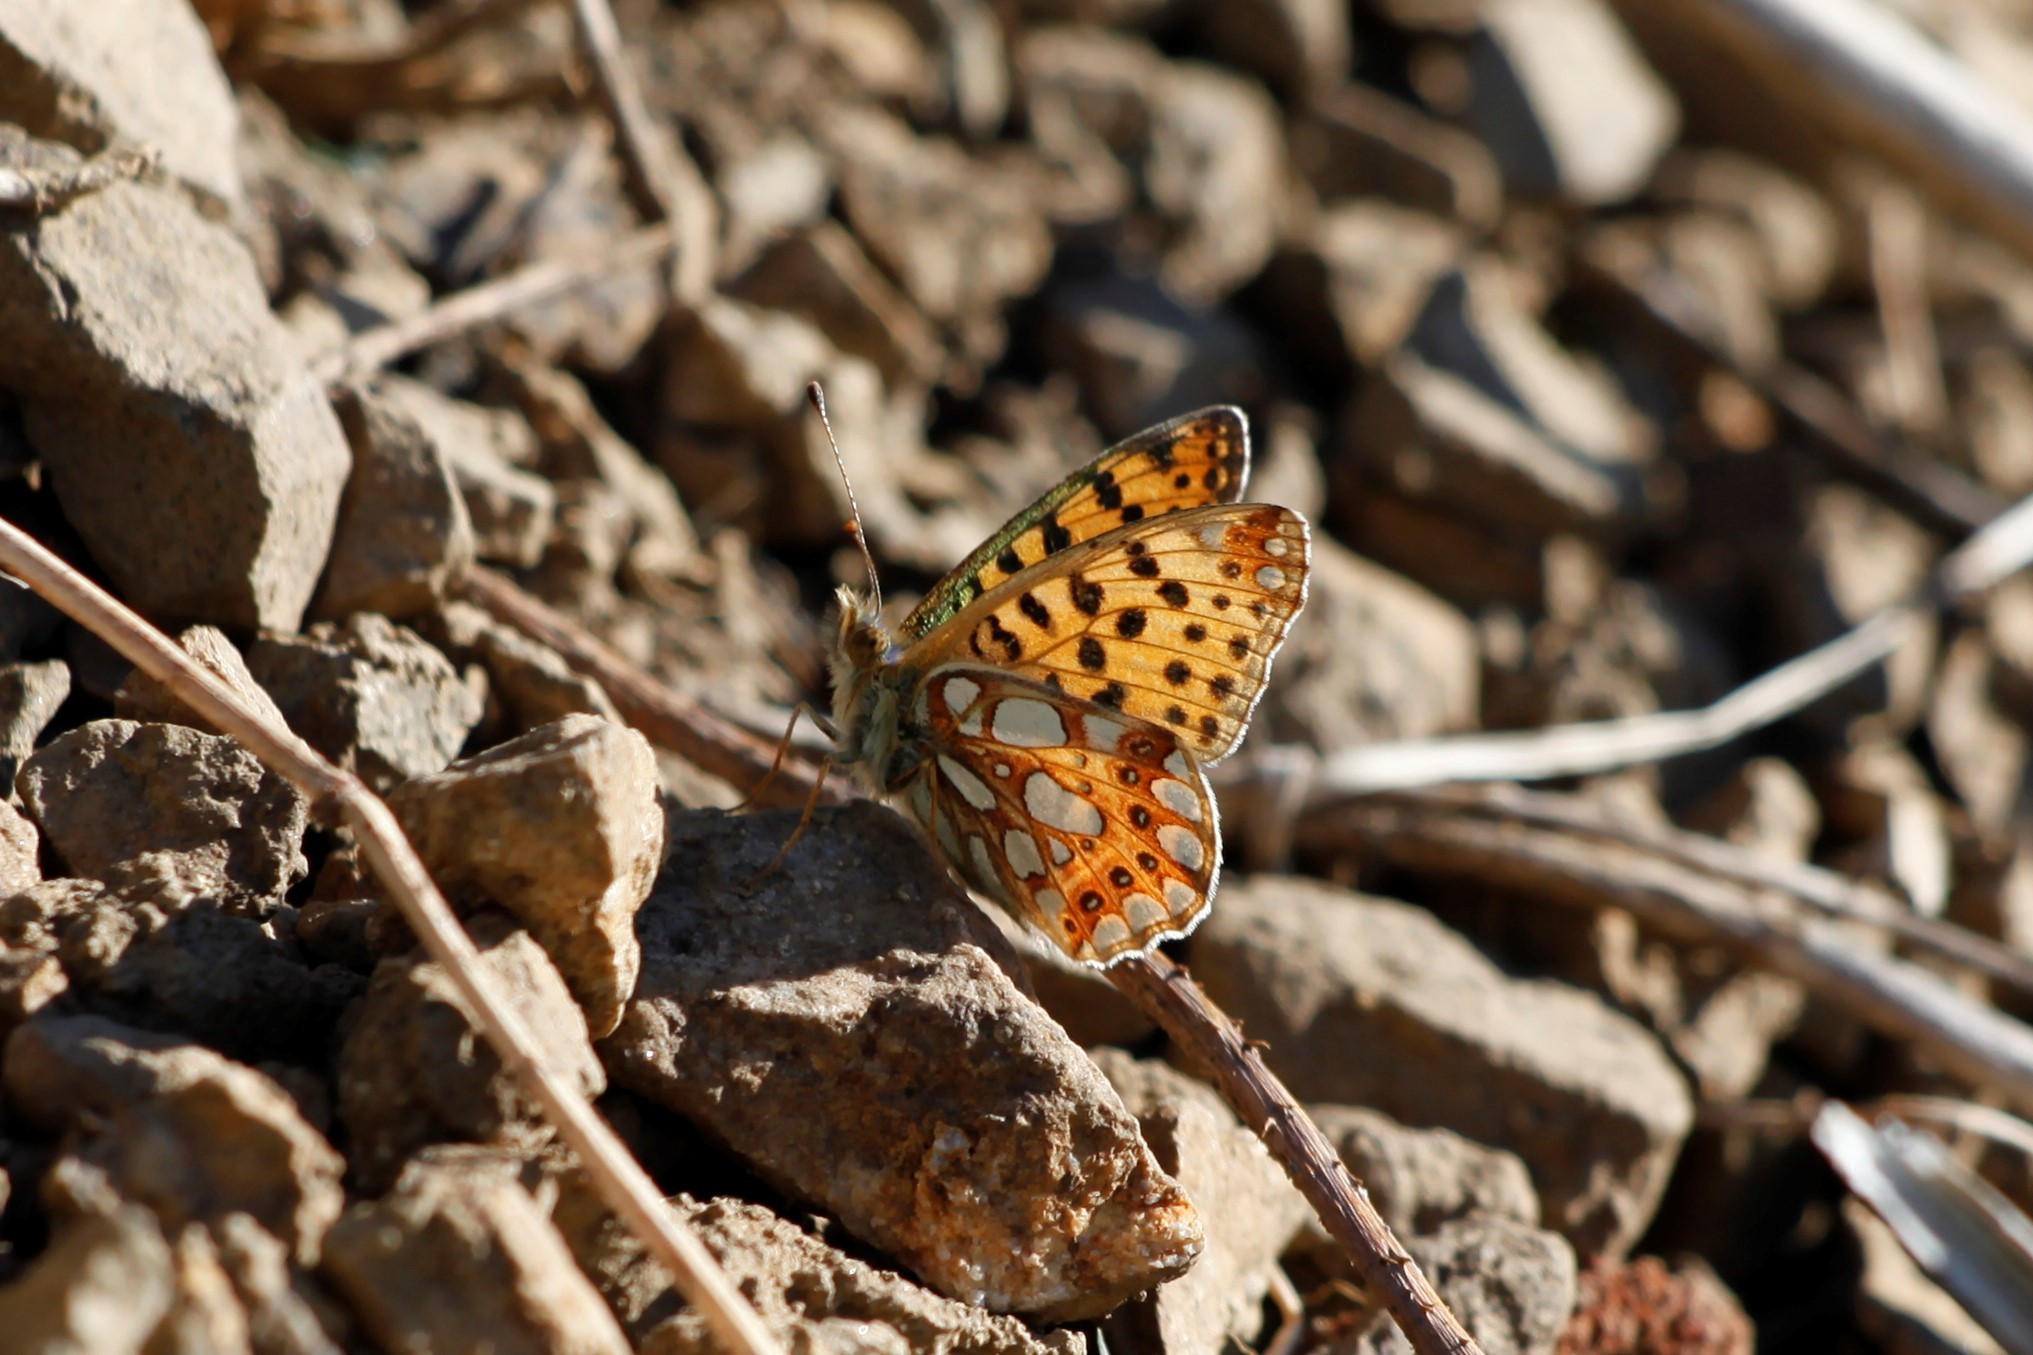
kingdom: Animalia
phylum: Arthropoda
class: Insecta
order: Lepidoptera
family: Nymphalidae
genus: Issoria
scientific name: Issoria lathonia
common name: Queen of spain fritillary
